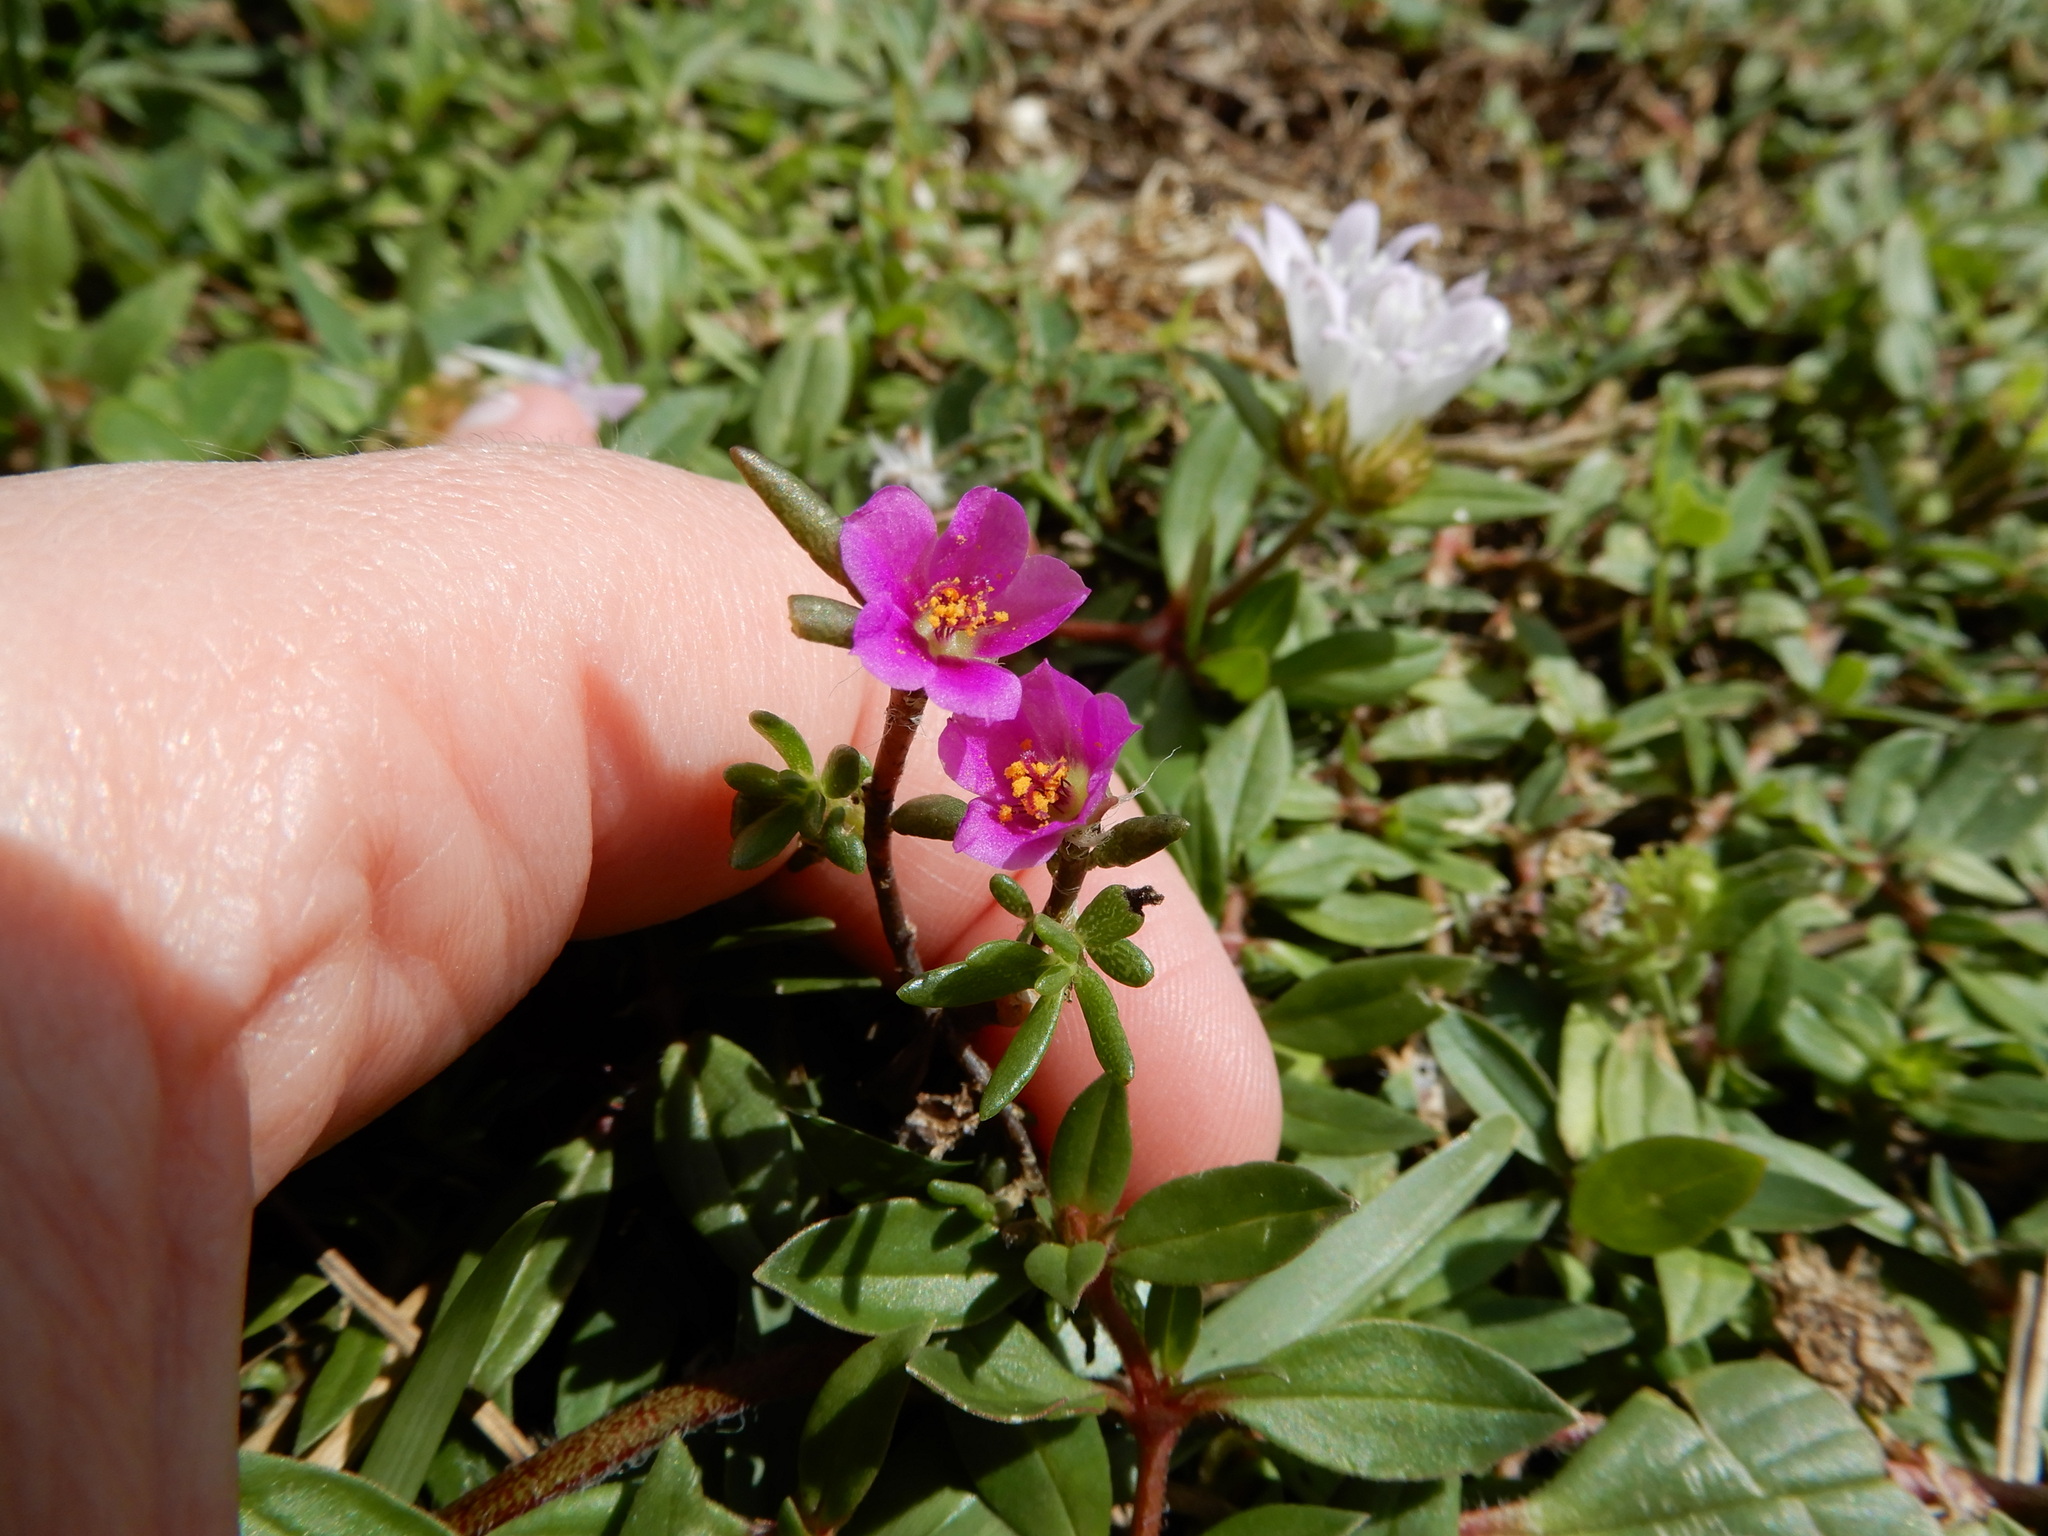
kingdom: Plantae
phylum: Tracheophyta
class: Magnoliopsida
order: Caryophyllales
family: Portulacaceae
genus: Portulaca
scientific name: Portulaca pilosa
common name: Kiss me quick
